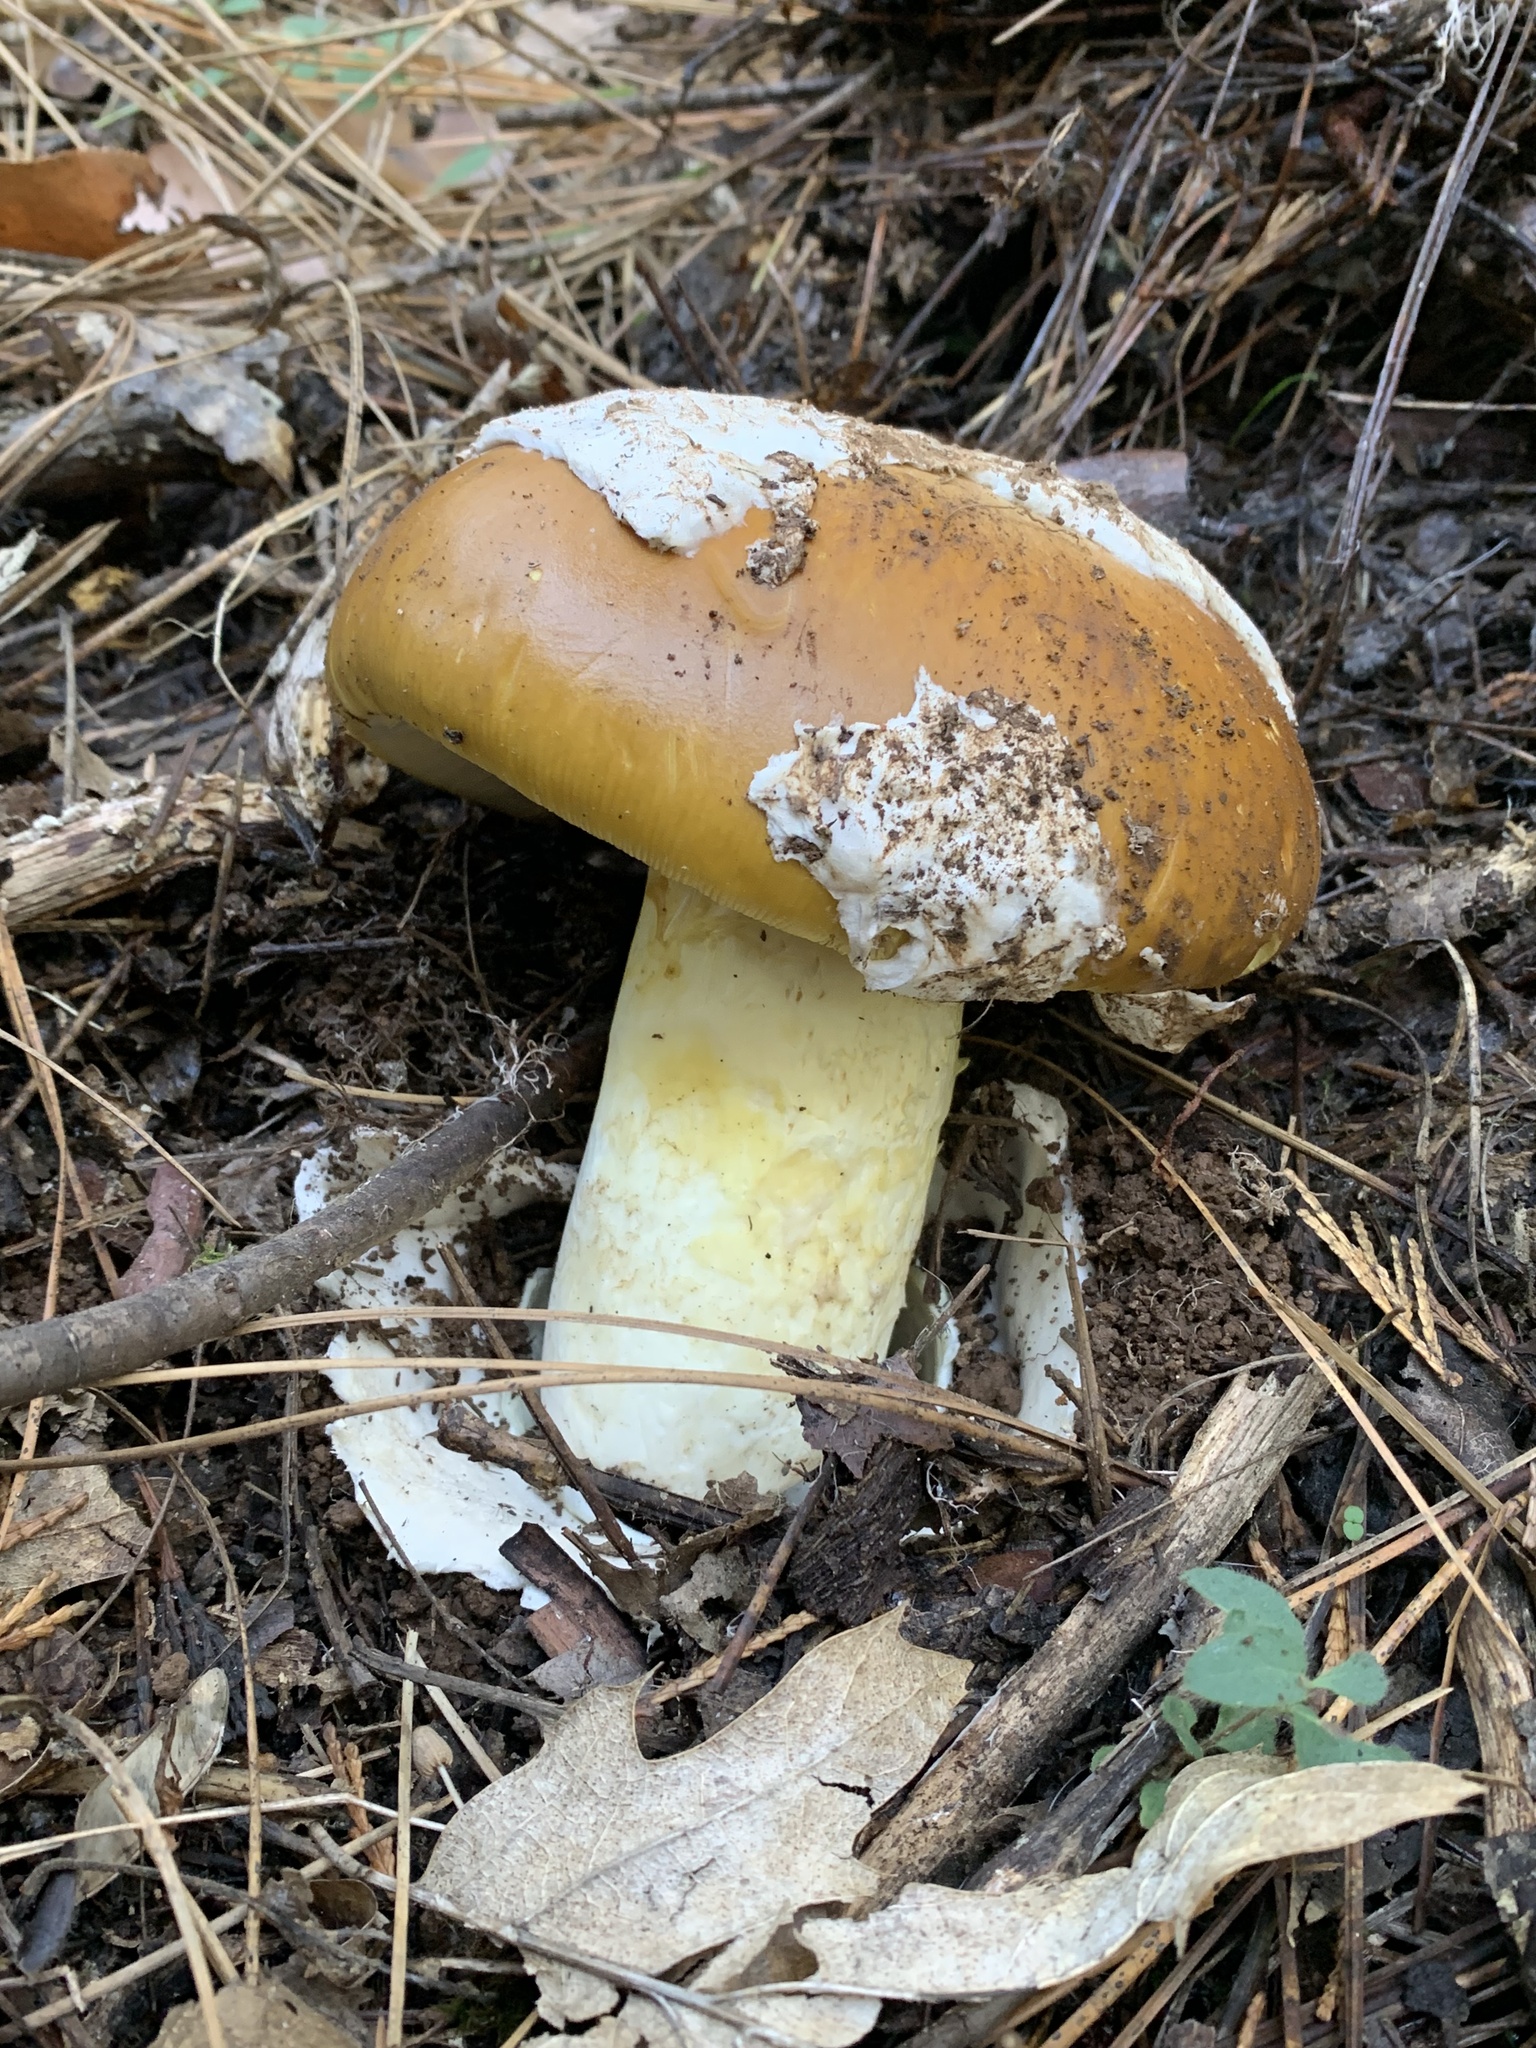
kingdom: Fungi
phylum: Basidiomycota
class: Agaricomycetes
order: Agaricales
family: Amanitaceae
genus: Amanita
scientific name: Amanita calyptroderma
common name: Coccora
